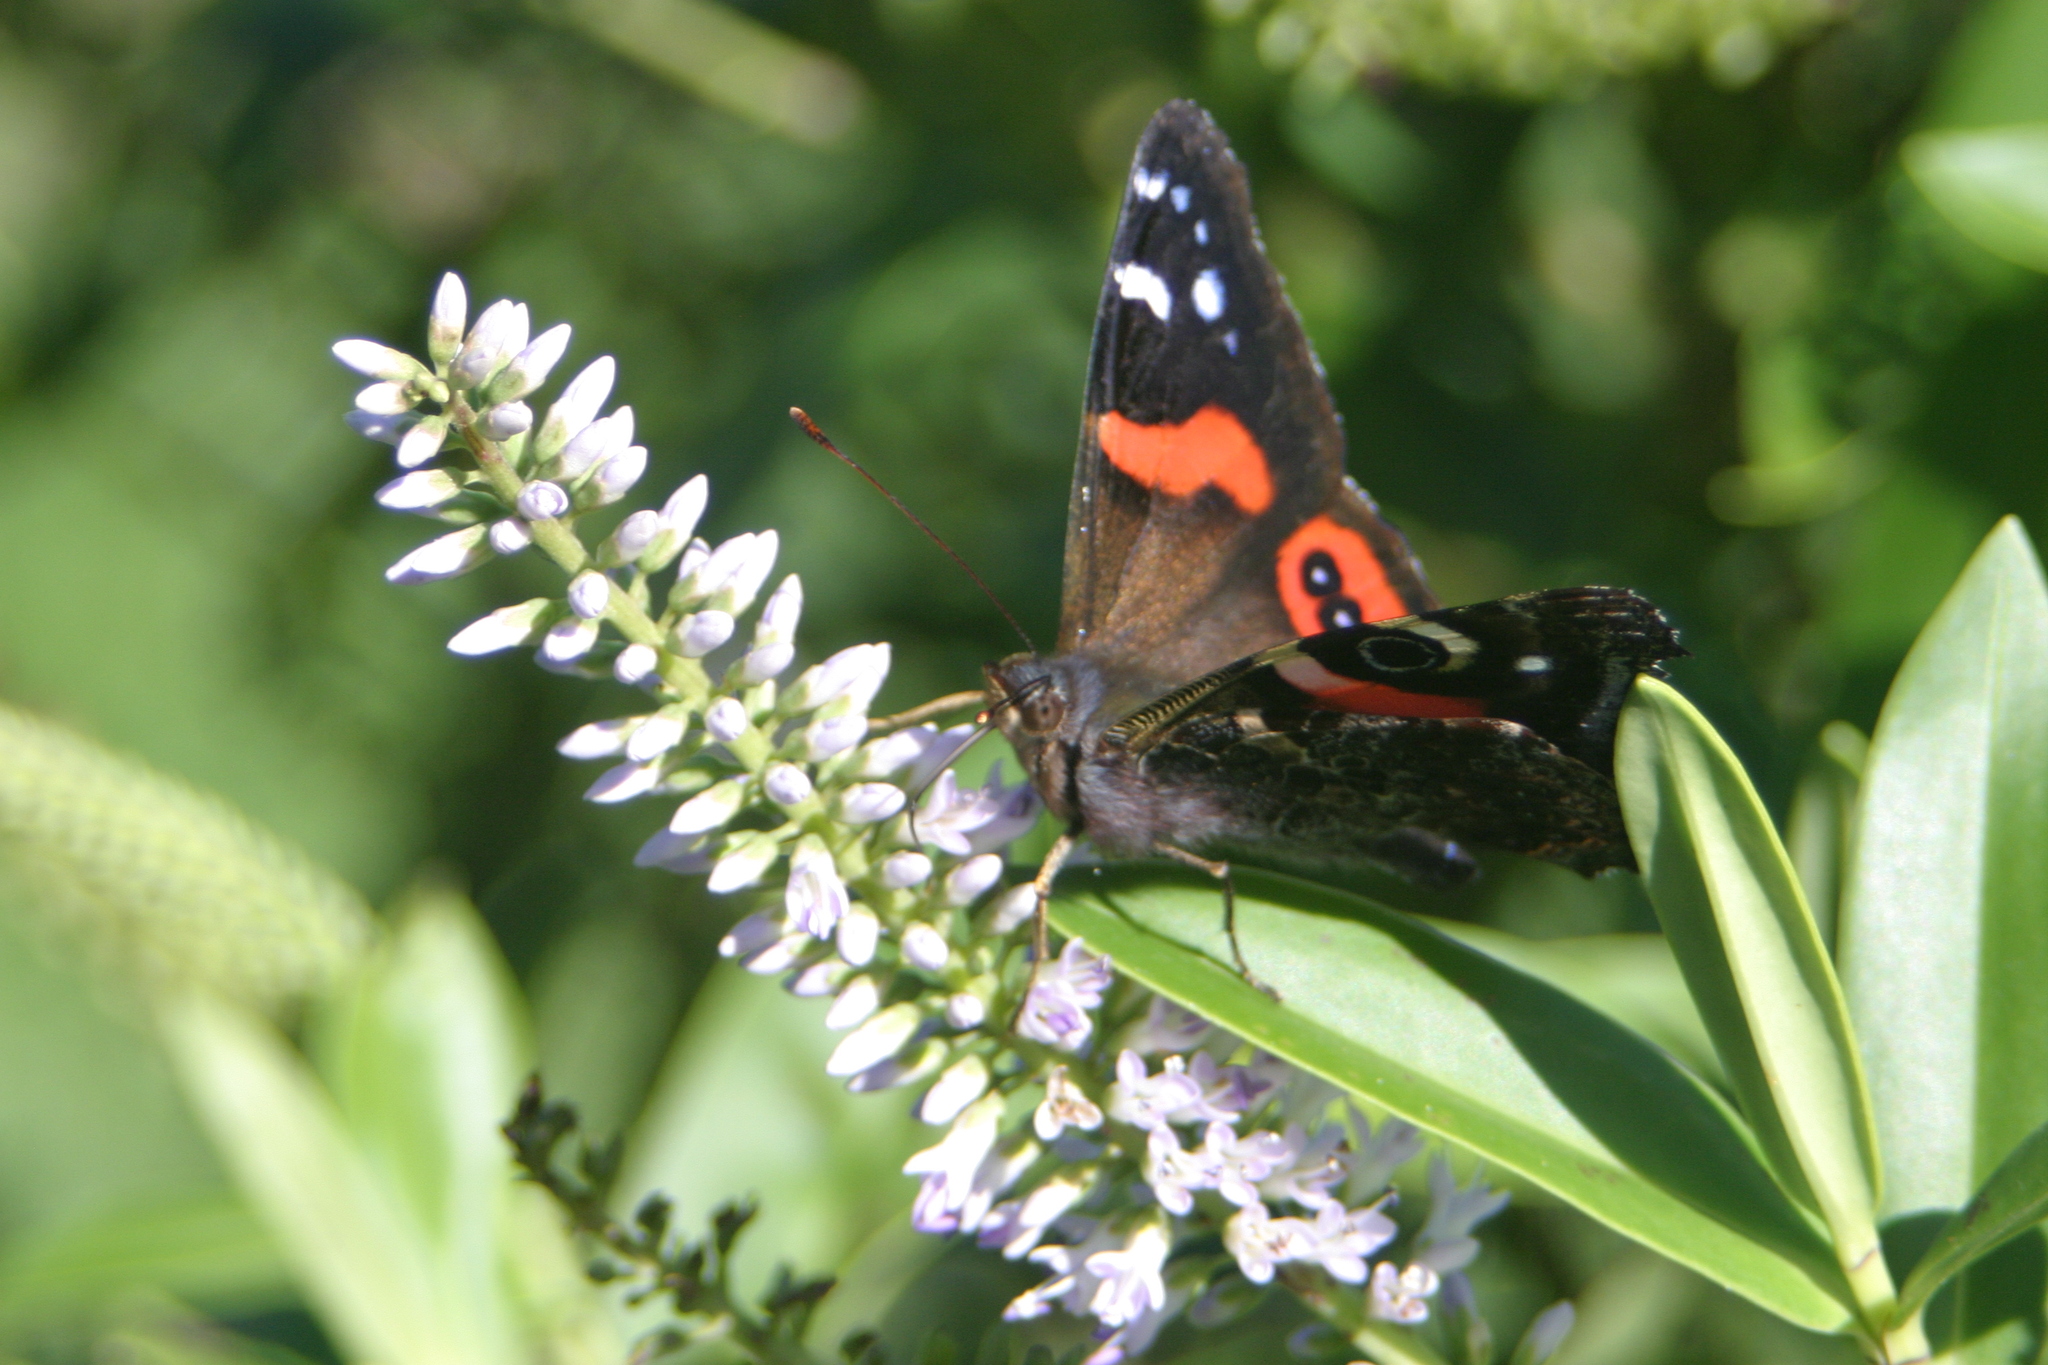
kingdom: Animalia
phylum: Arthropoda
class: Insecta
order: Lepidoptera
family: Nymphalidae
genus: Vanessa
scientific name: Vanessa gonerilla
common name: New zealand red admiral
